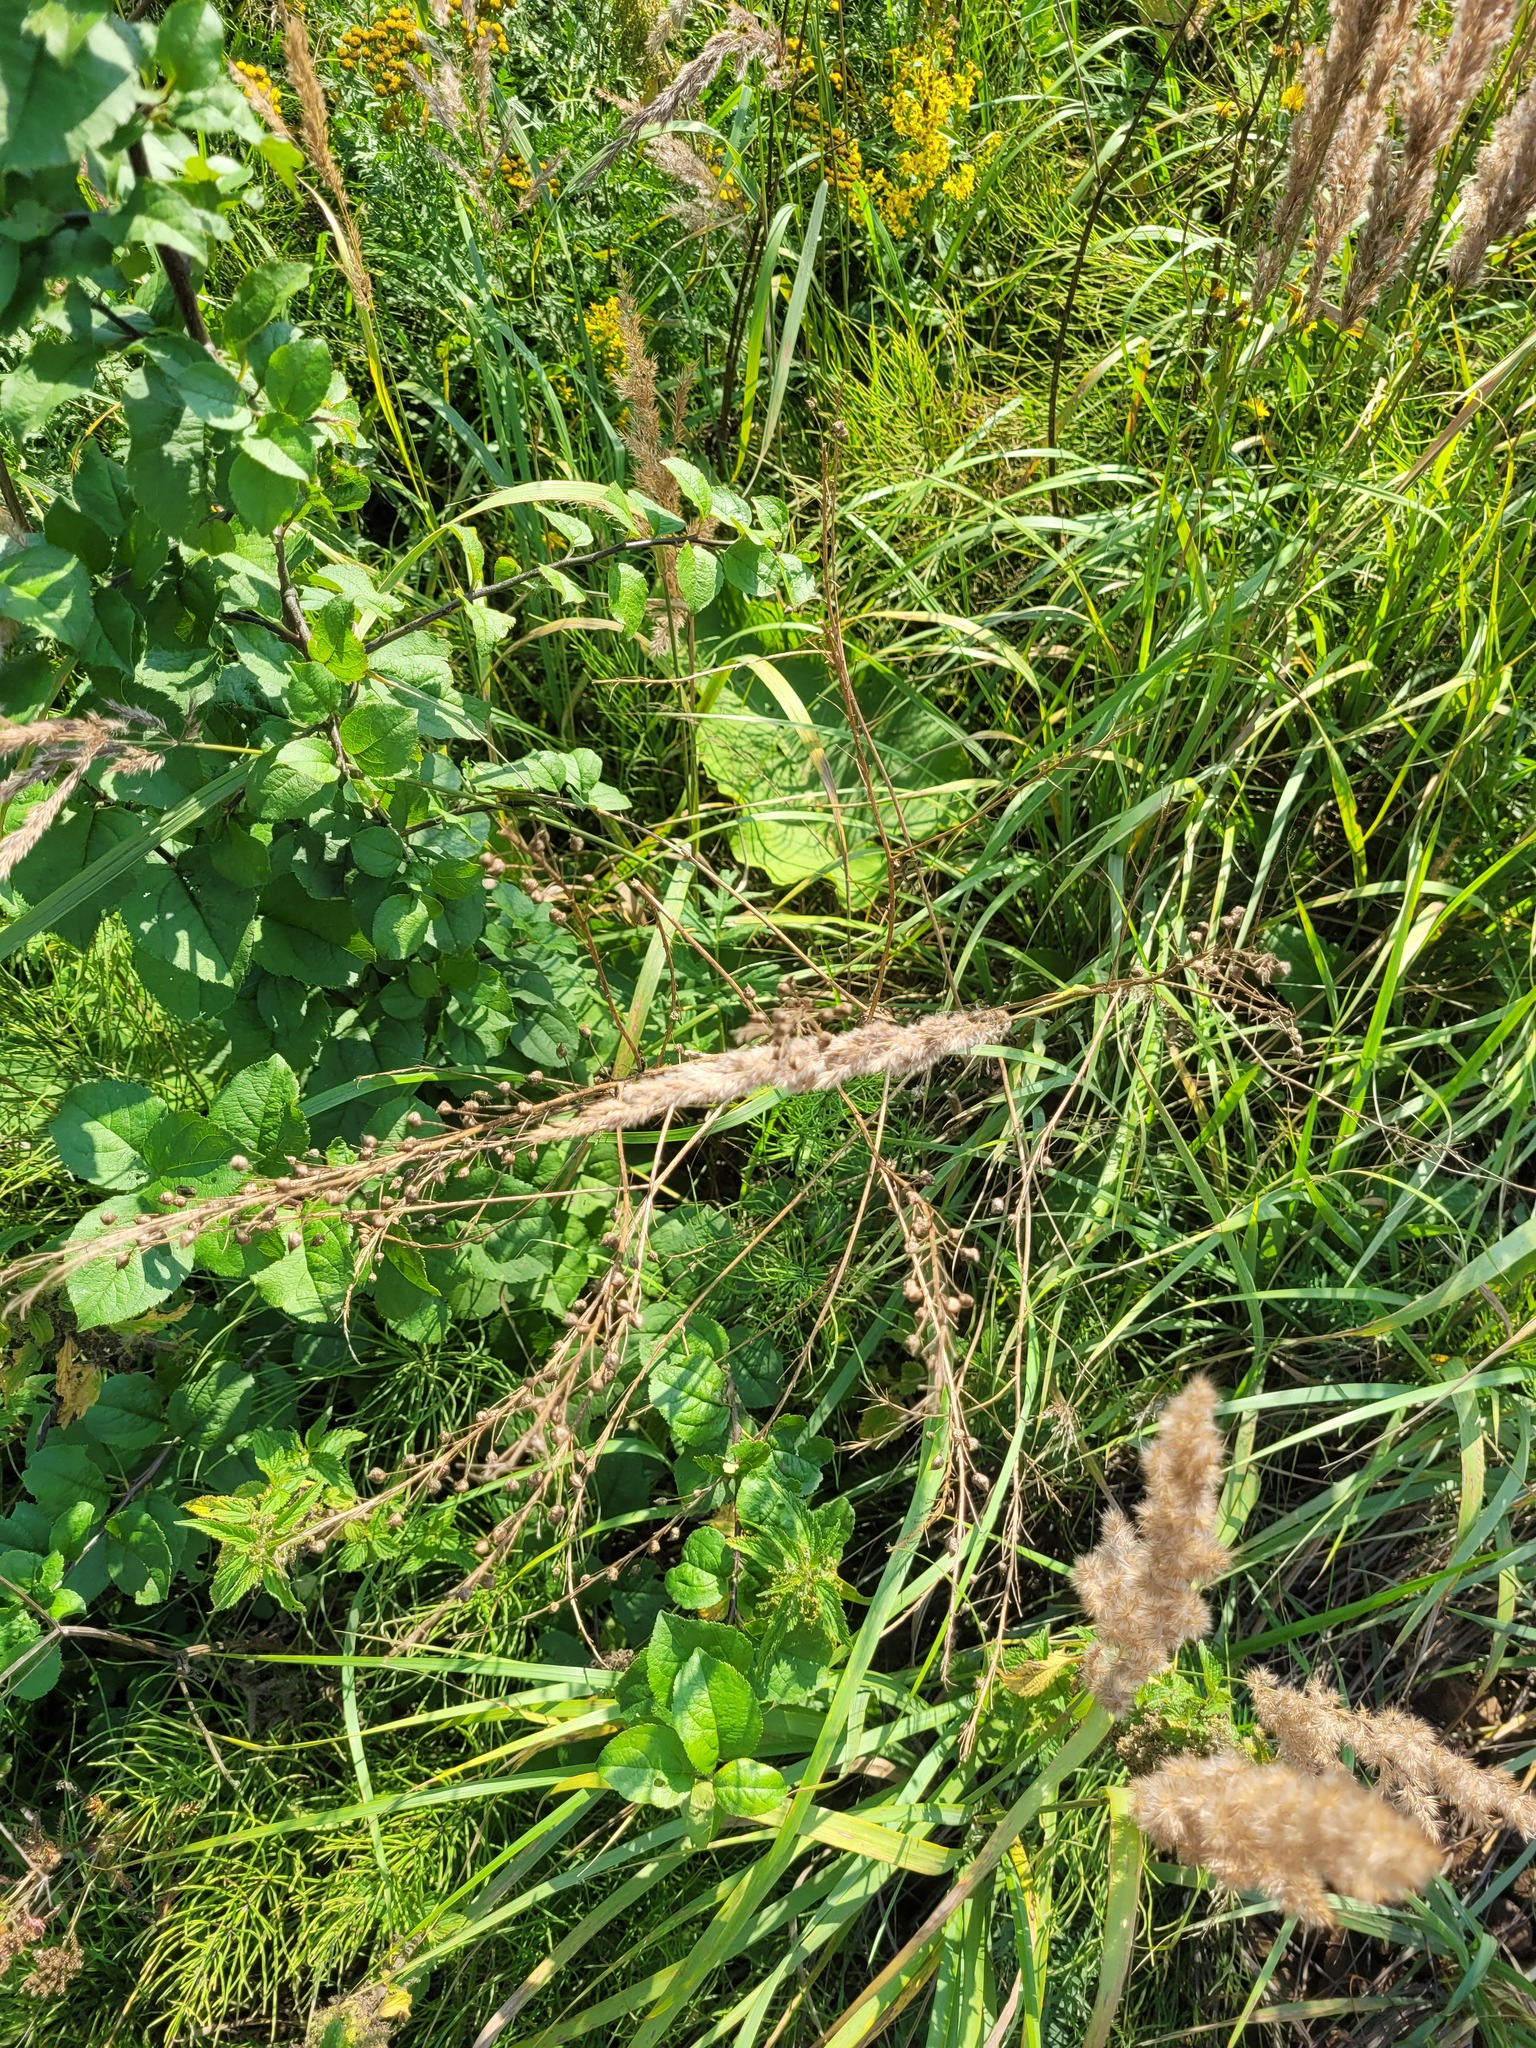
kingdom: Plantae
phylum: Tracheophyta
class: Magnoliopsida
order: Brassicales
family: Brassicaceae
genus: Bunias
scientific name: Bunias orientalis
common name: Warty-cabbage
